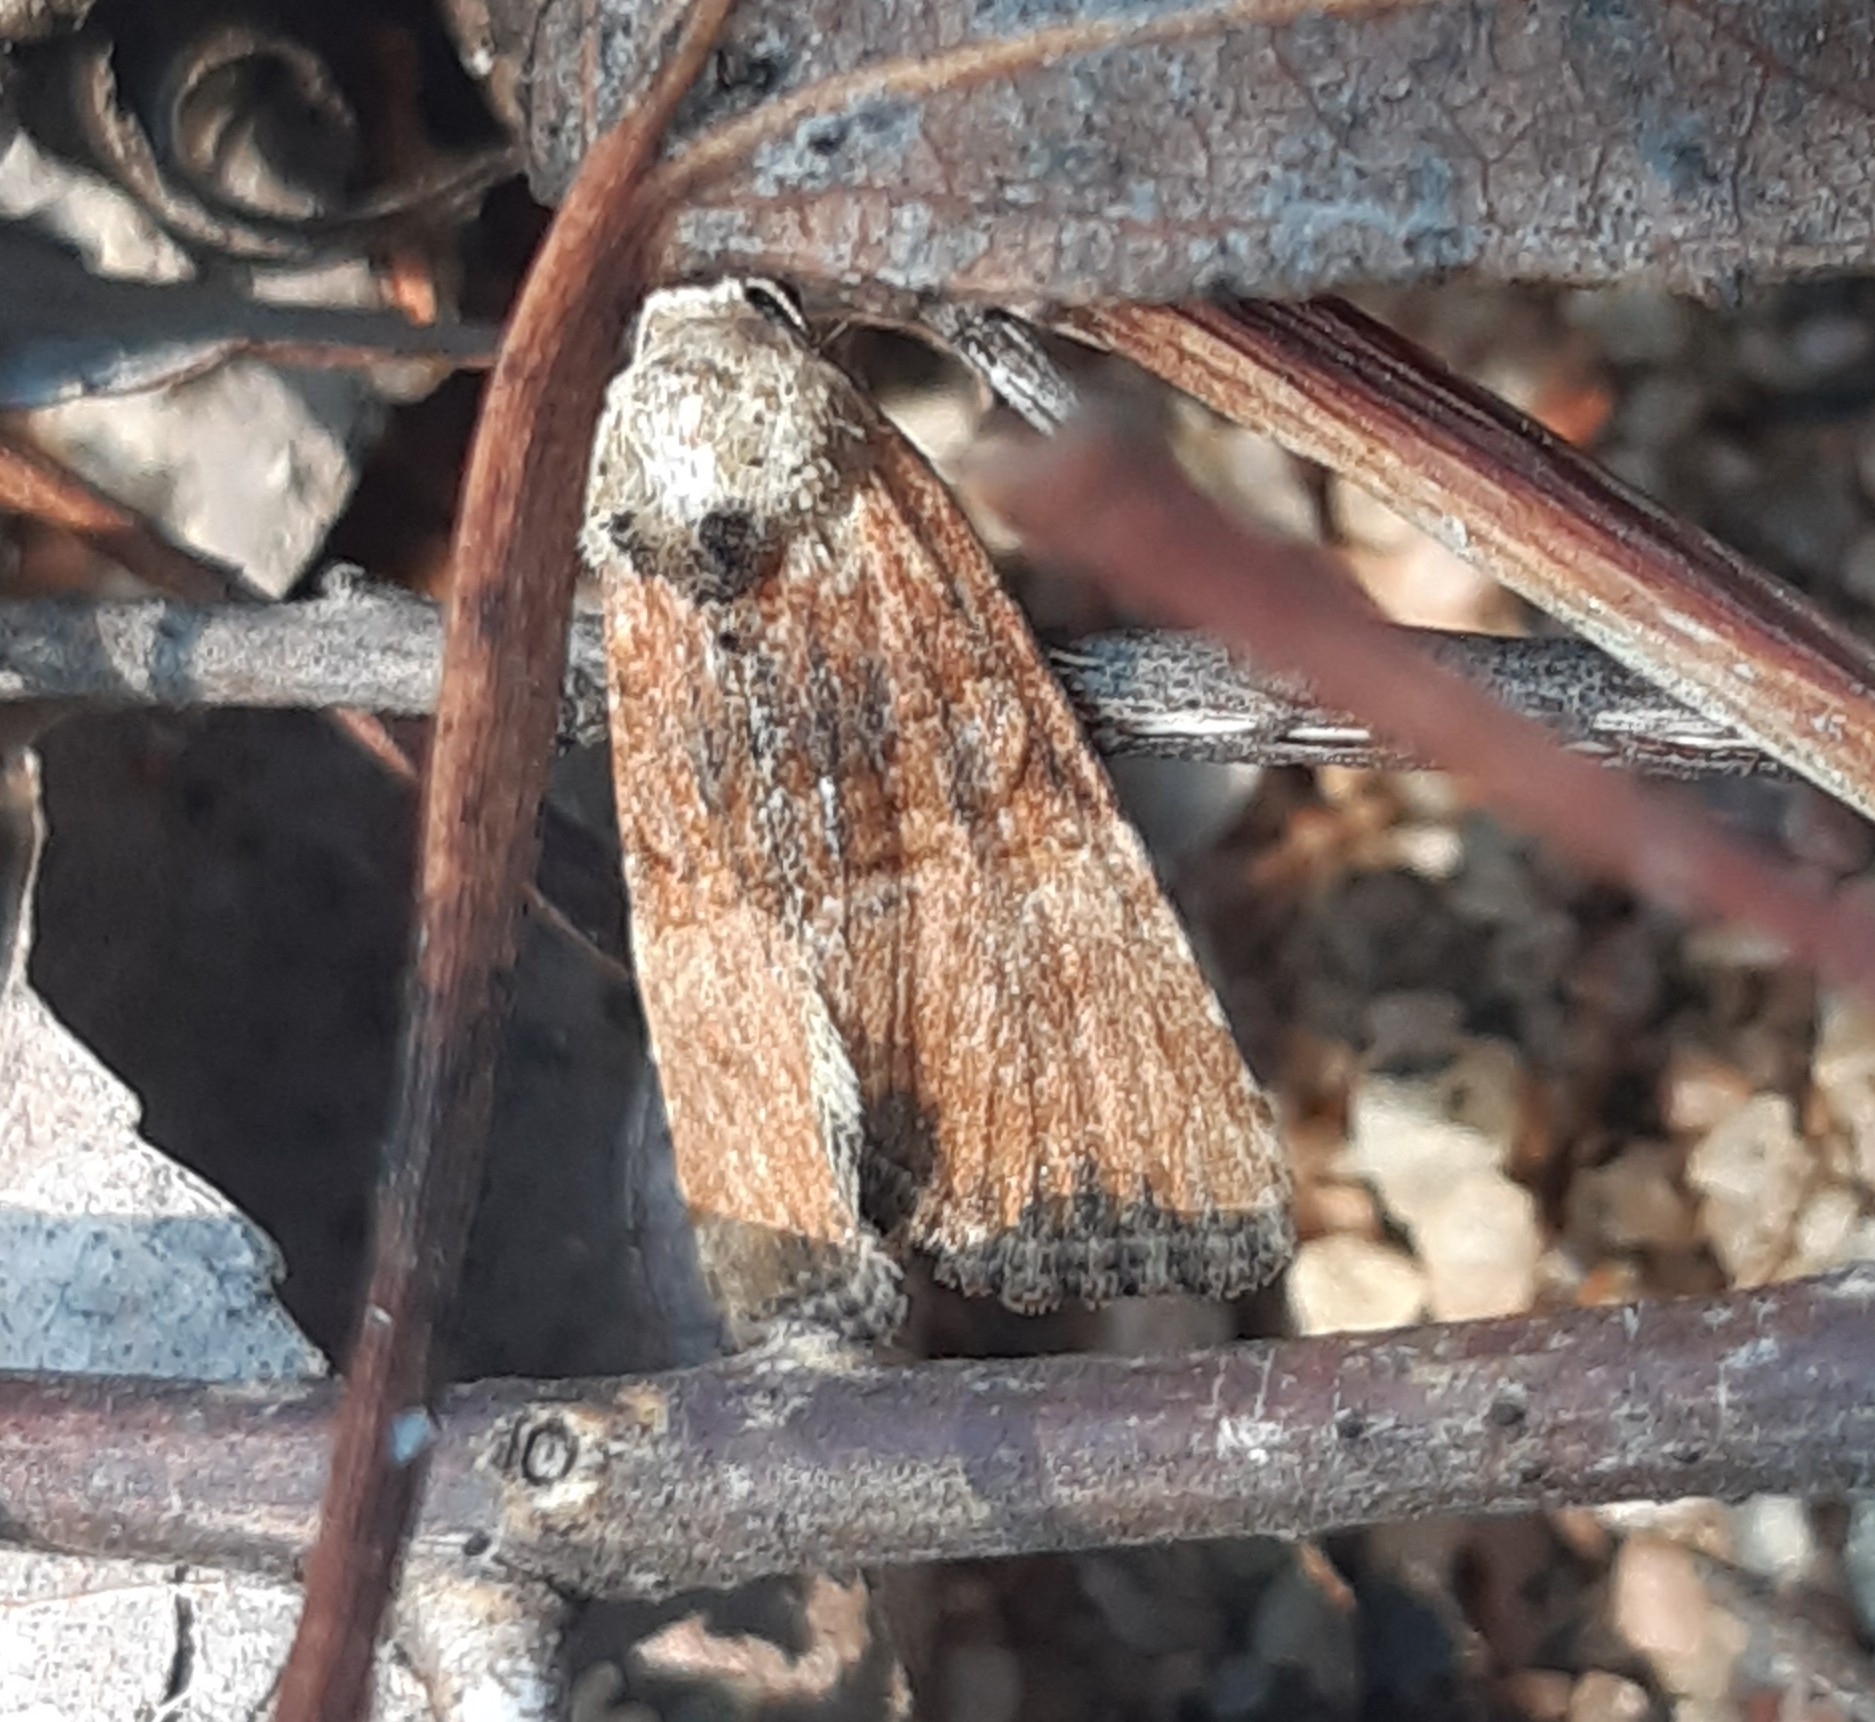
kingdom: Animalia
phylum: Arthropoda
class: Insecta
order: Lepidoptera
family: Noctuidae
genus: Mesoligia
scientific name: Mesoligia furuncula
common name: Cloaked minor
